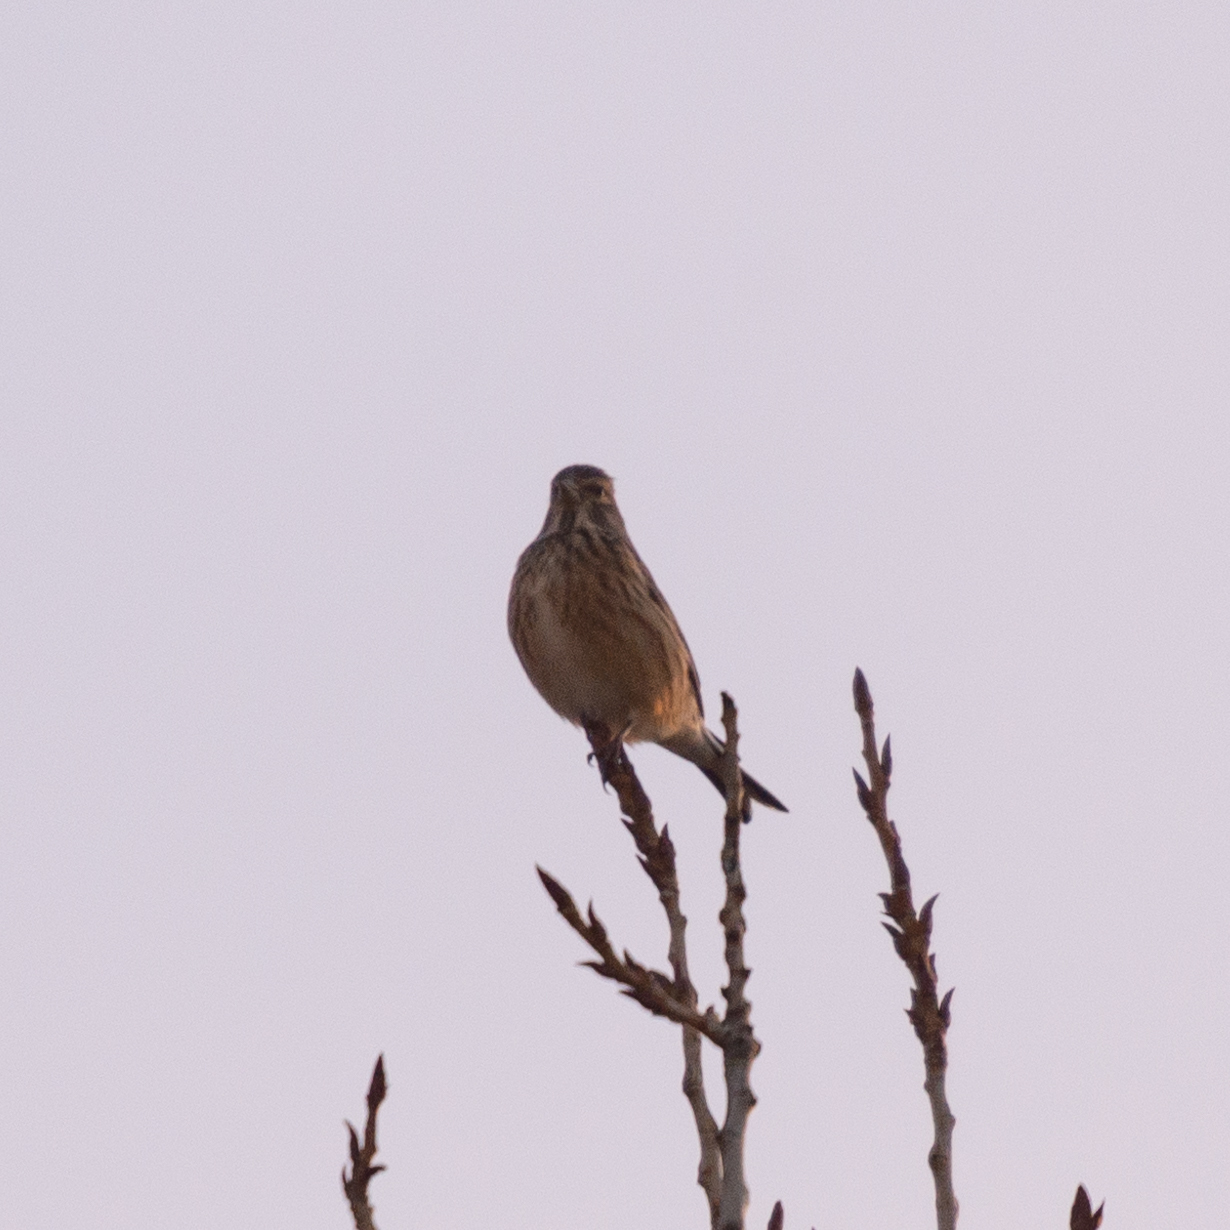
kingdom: Animalia
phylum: Chordata
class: Aves
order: Passeriformes
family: Fringillidae
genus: Linaria
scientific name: Linaria cannabina
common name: Common linnet
